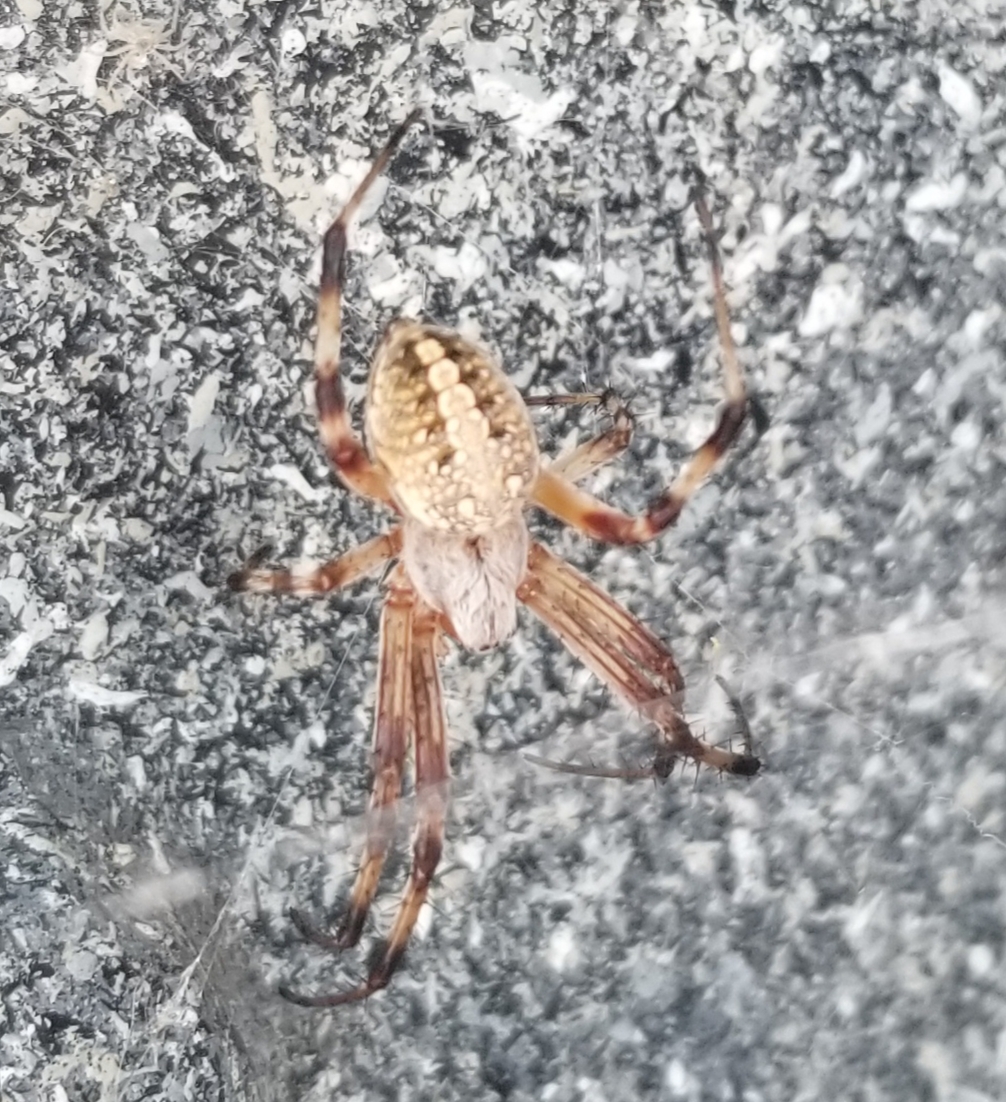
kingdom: Animalia
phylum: Arthropoda
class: Arachnida
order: Araneae
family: Araneidae
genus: Neoscona
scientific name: Neoscona oaxacensis
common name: Orb weavers
